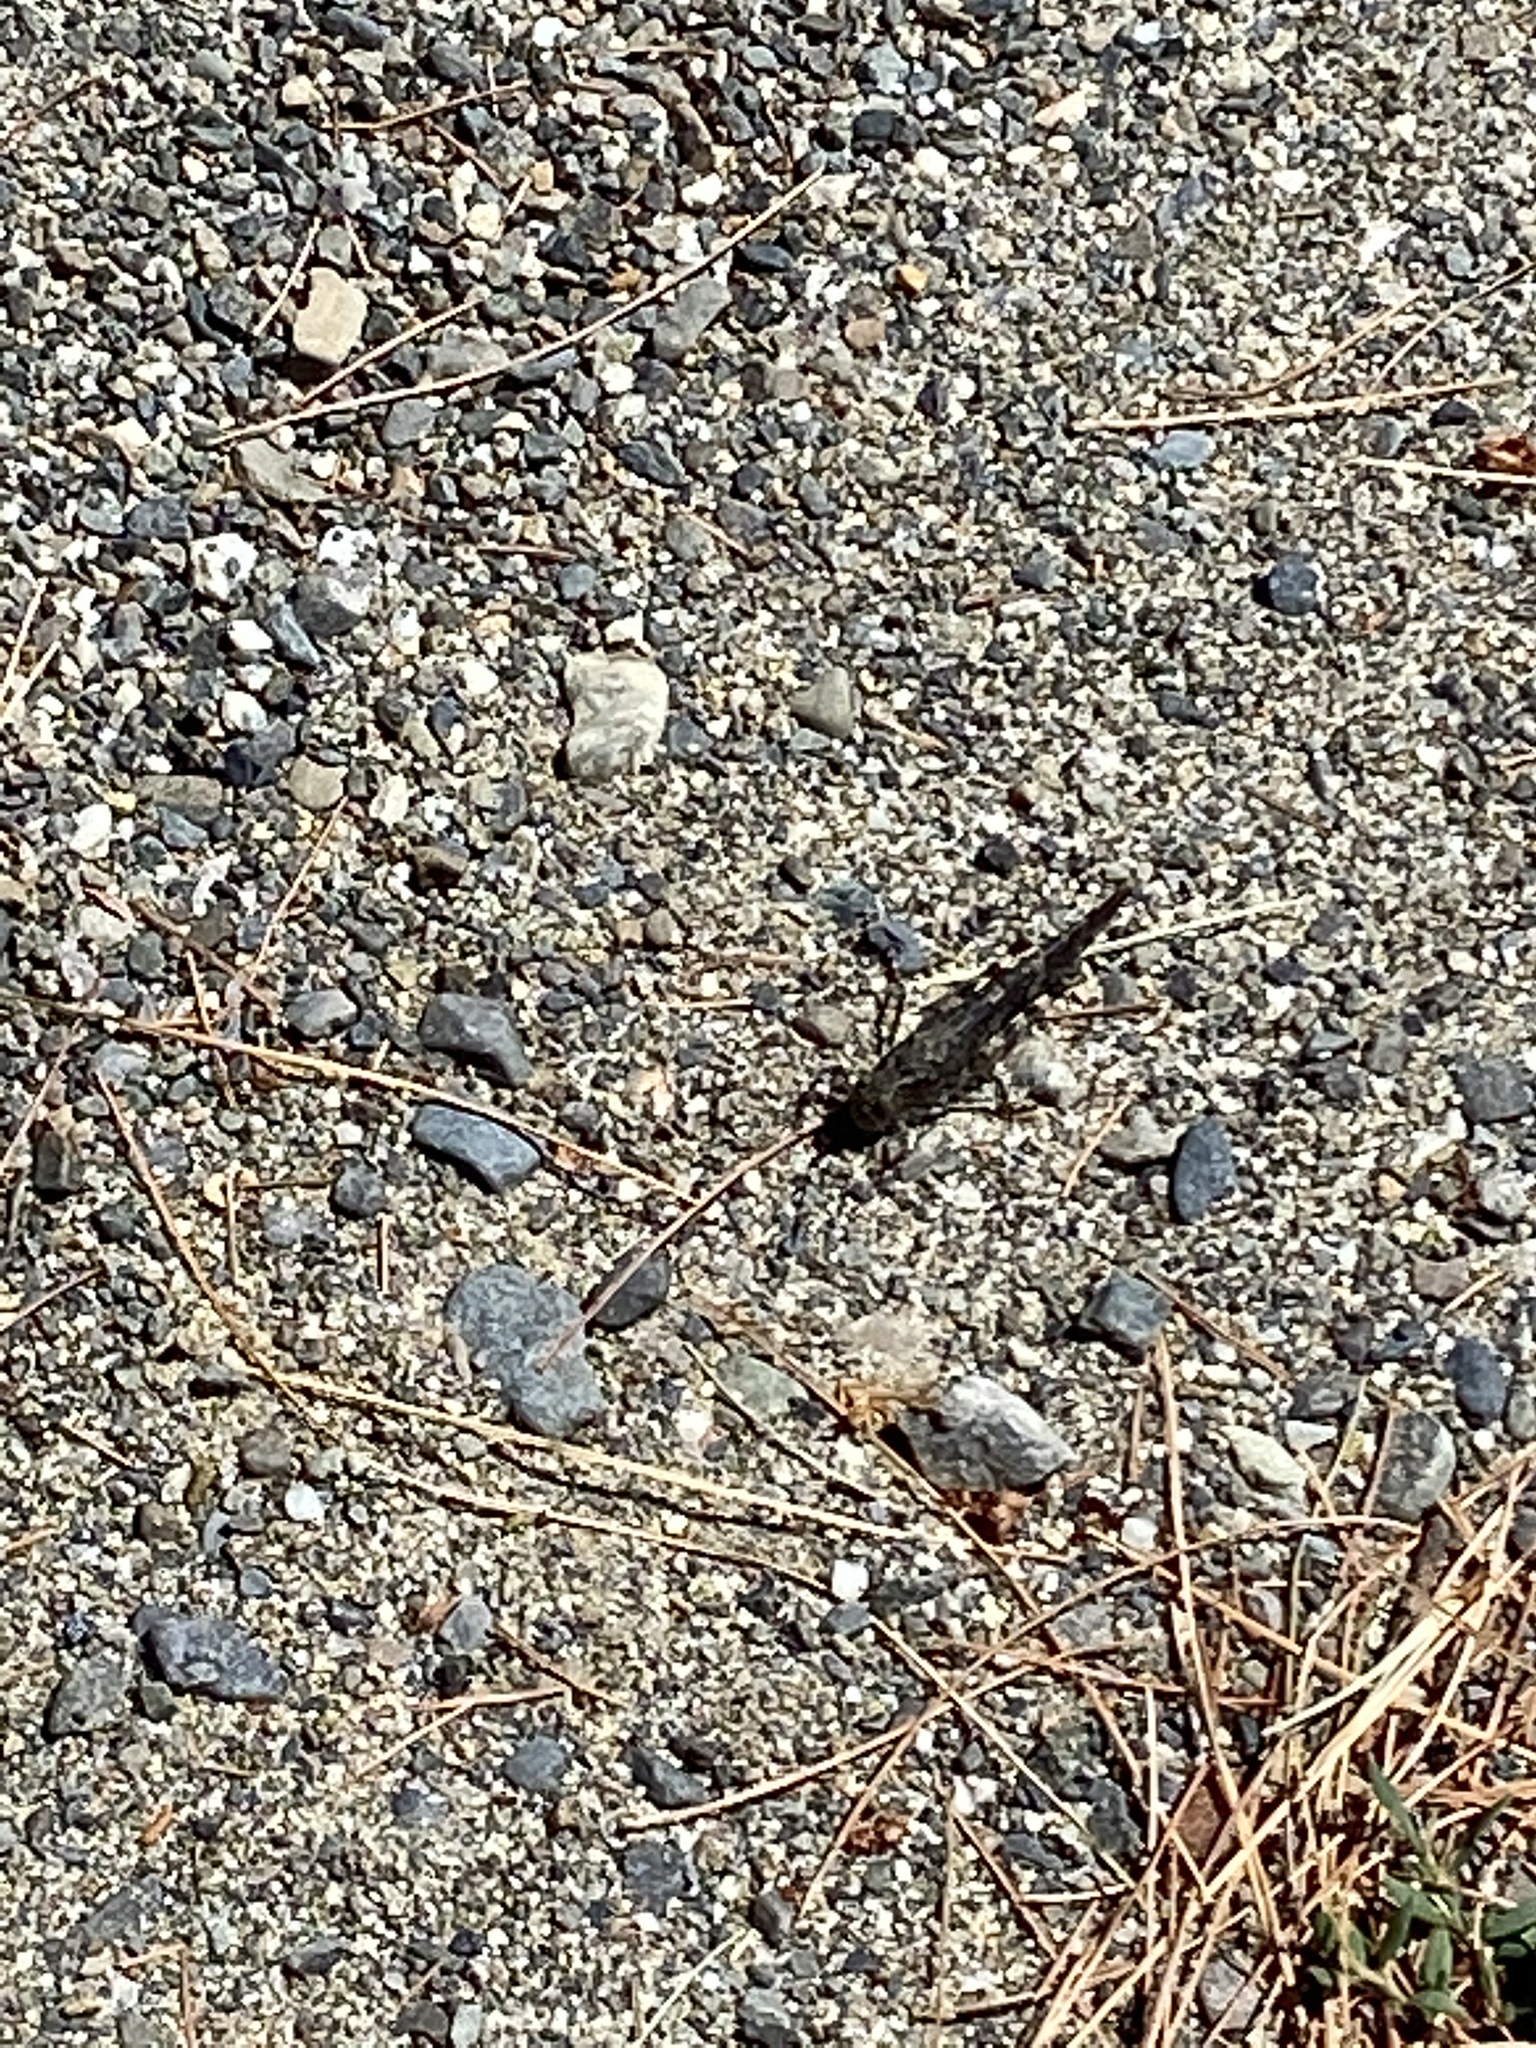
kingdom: Animalia
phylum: Arthropoda
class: Insecta
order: Orthoptera
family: Acrididae
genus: Trimerotropis
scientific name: Trimerotropis verruculata
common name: Crackling forest grasshopper
